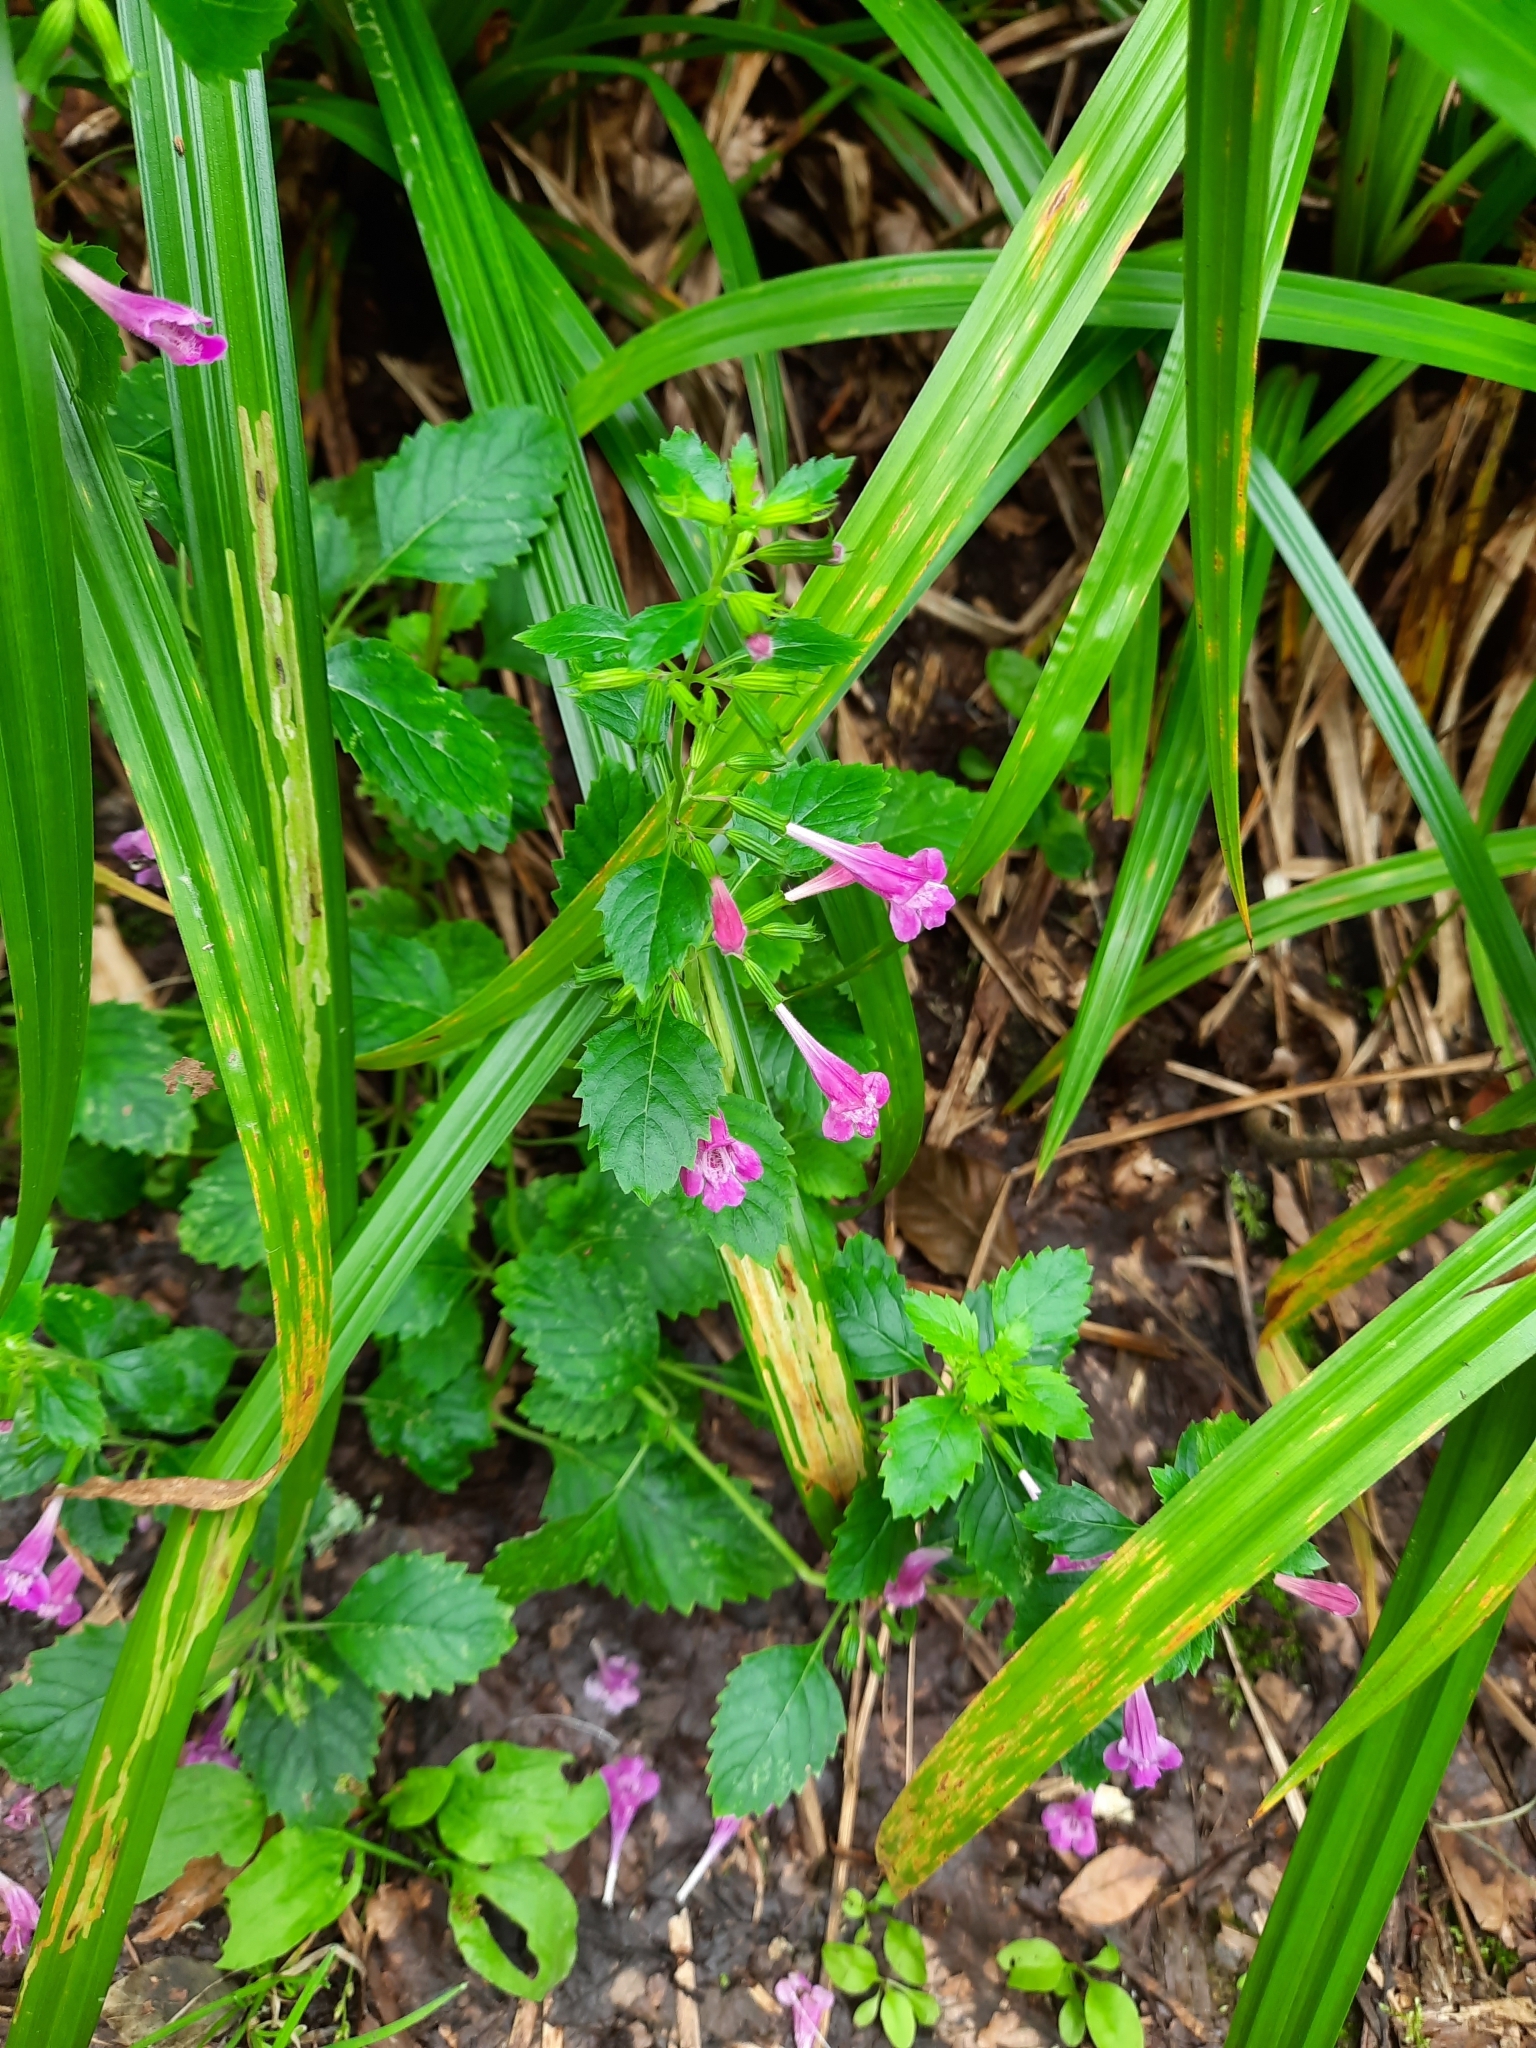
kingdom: Plantae
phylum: Tracheophyta
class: Magnoliopsida
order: Lamiales
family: Lamiaceae
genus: Clinopodium
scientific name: Clinopodium grandiflorum
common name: Greater calamint
